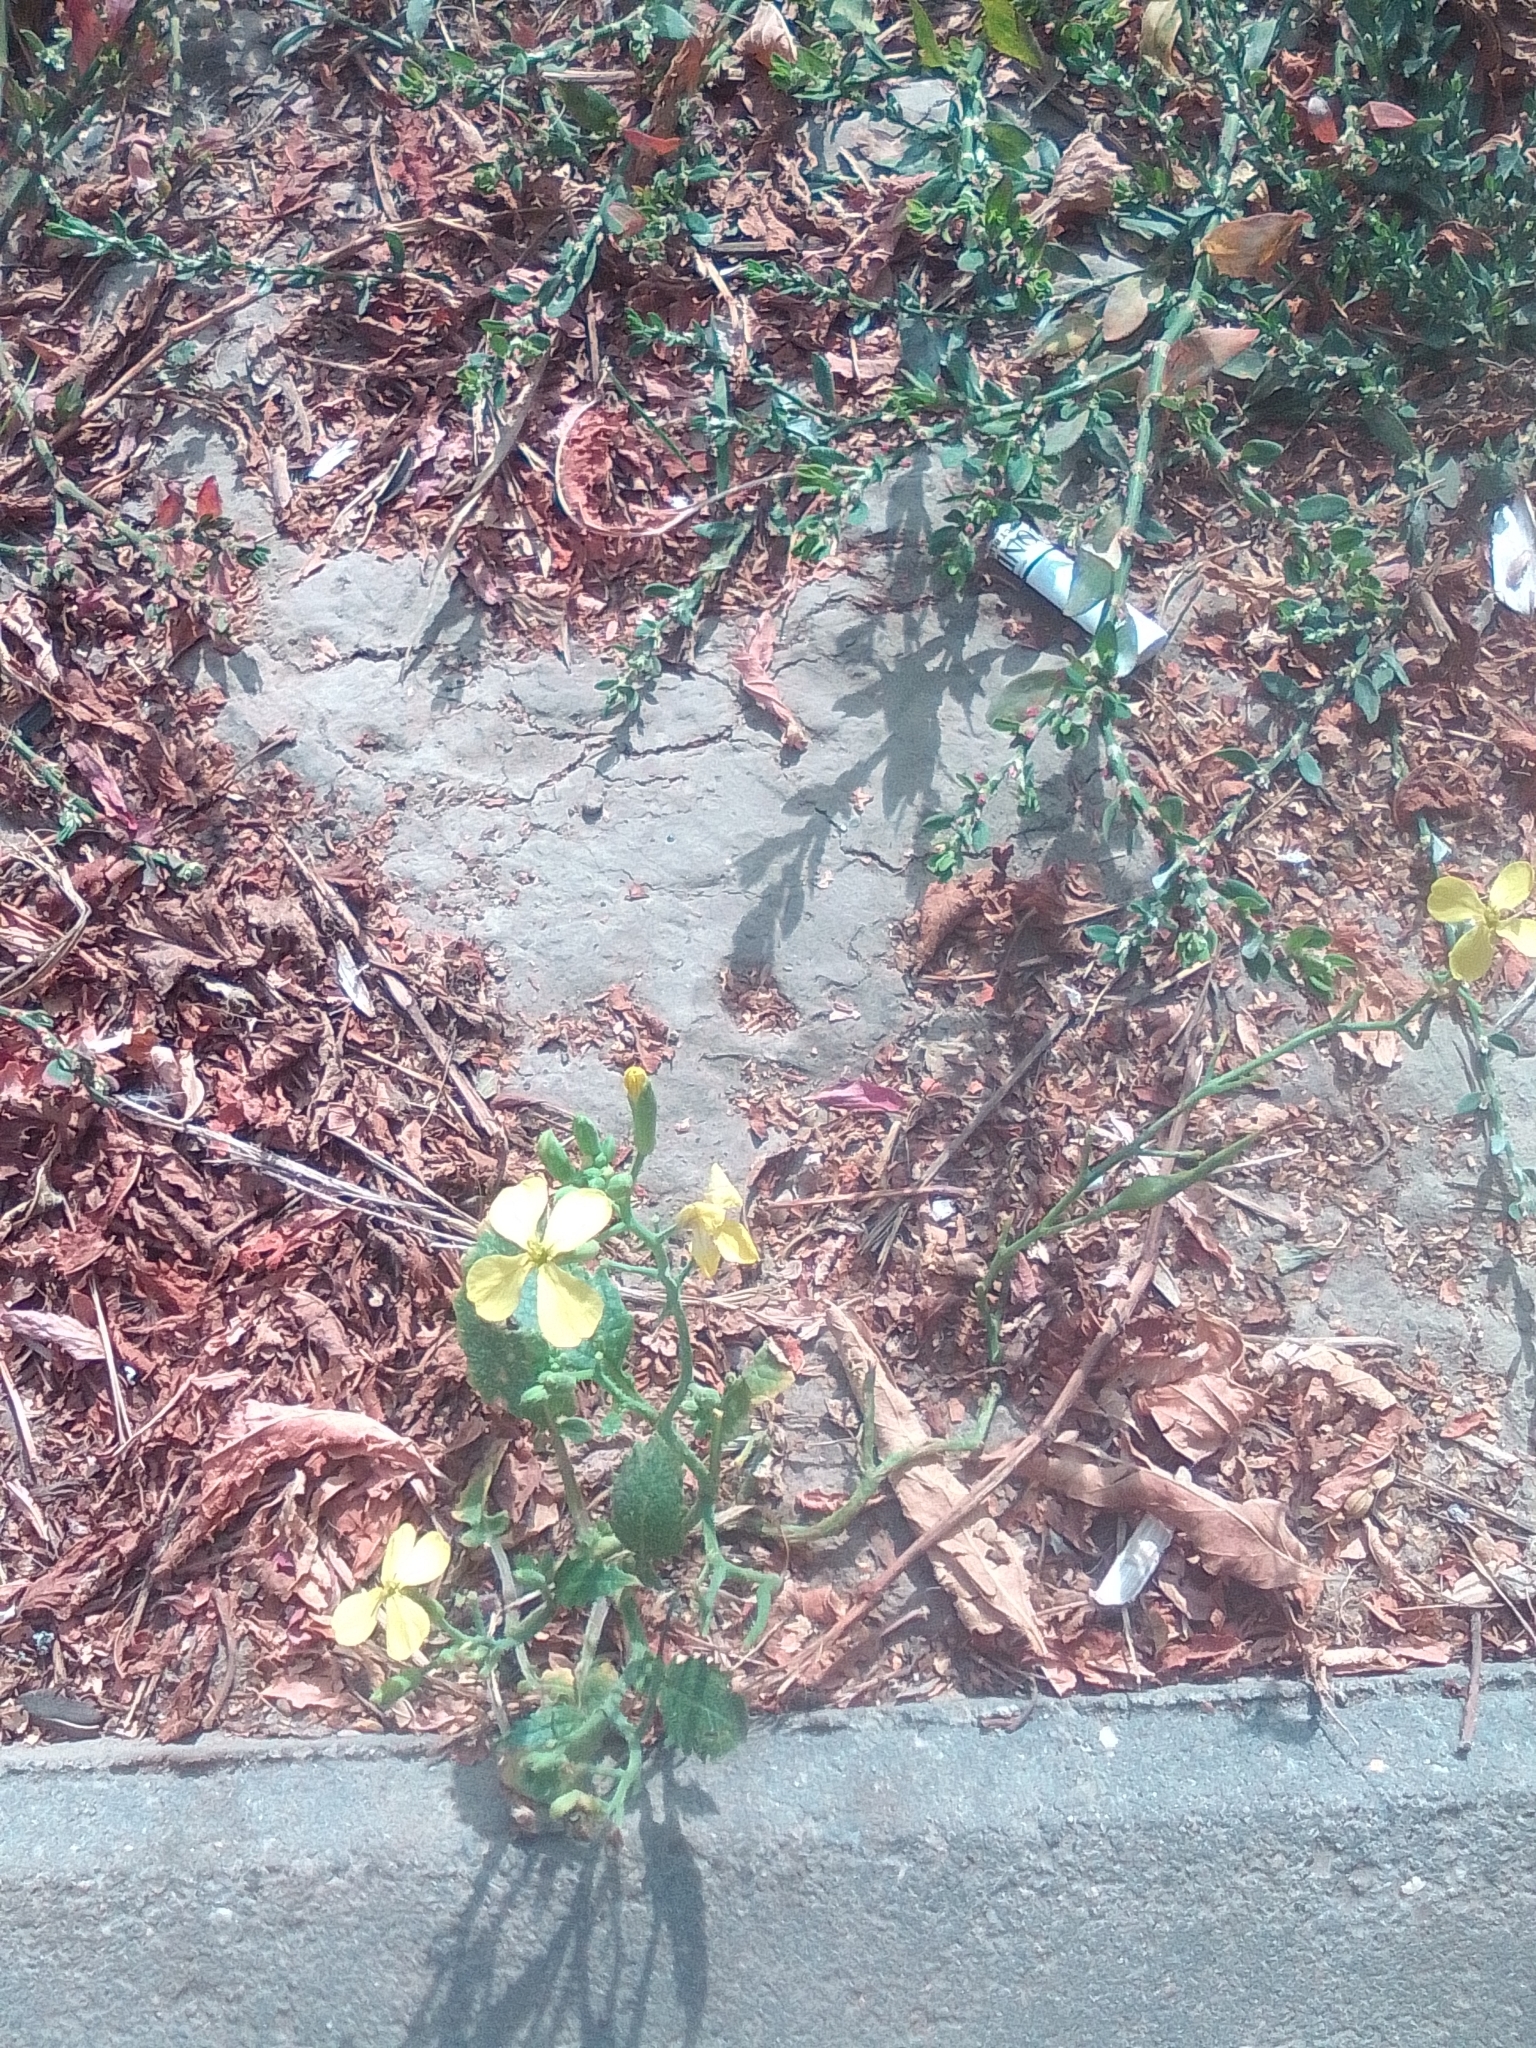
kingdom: Plantae
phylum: Tracheophyta
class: Magnoliopsida
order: Brassicales
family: Brassicaceae
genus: Raphanus
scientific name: Raphanus raphanistrum
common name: Wild radish
